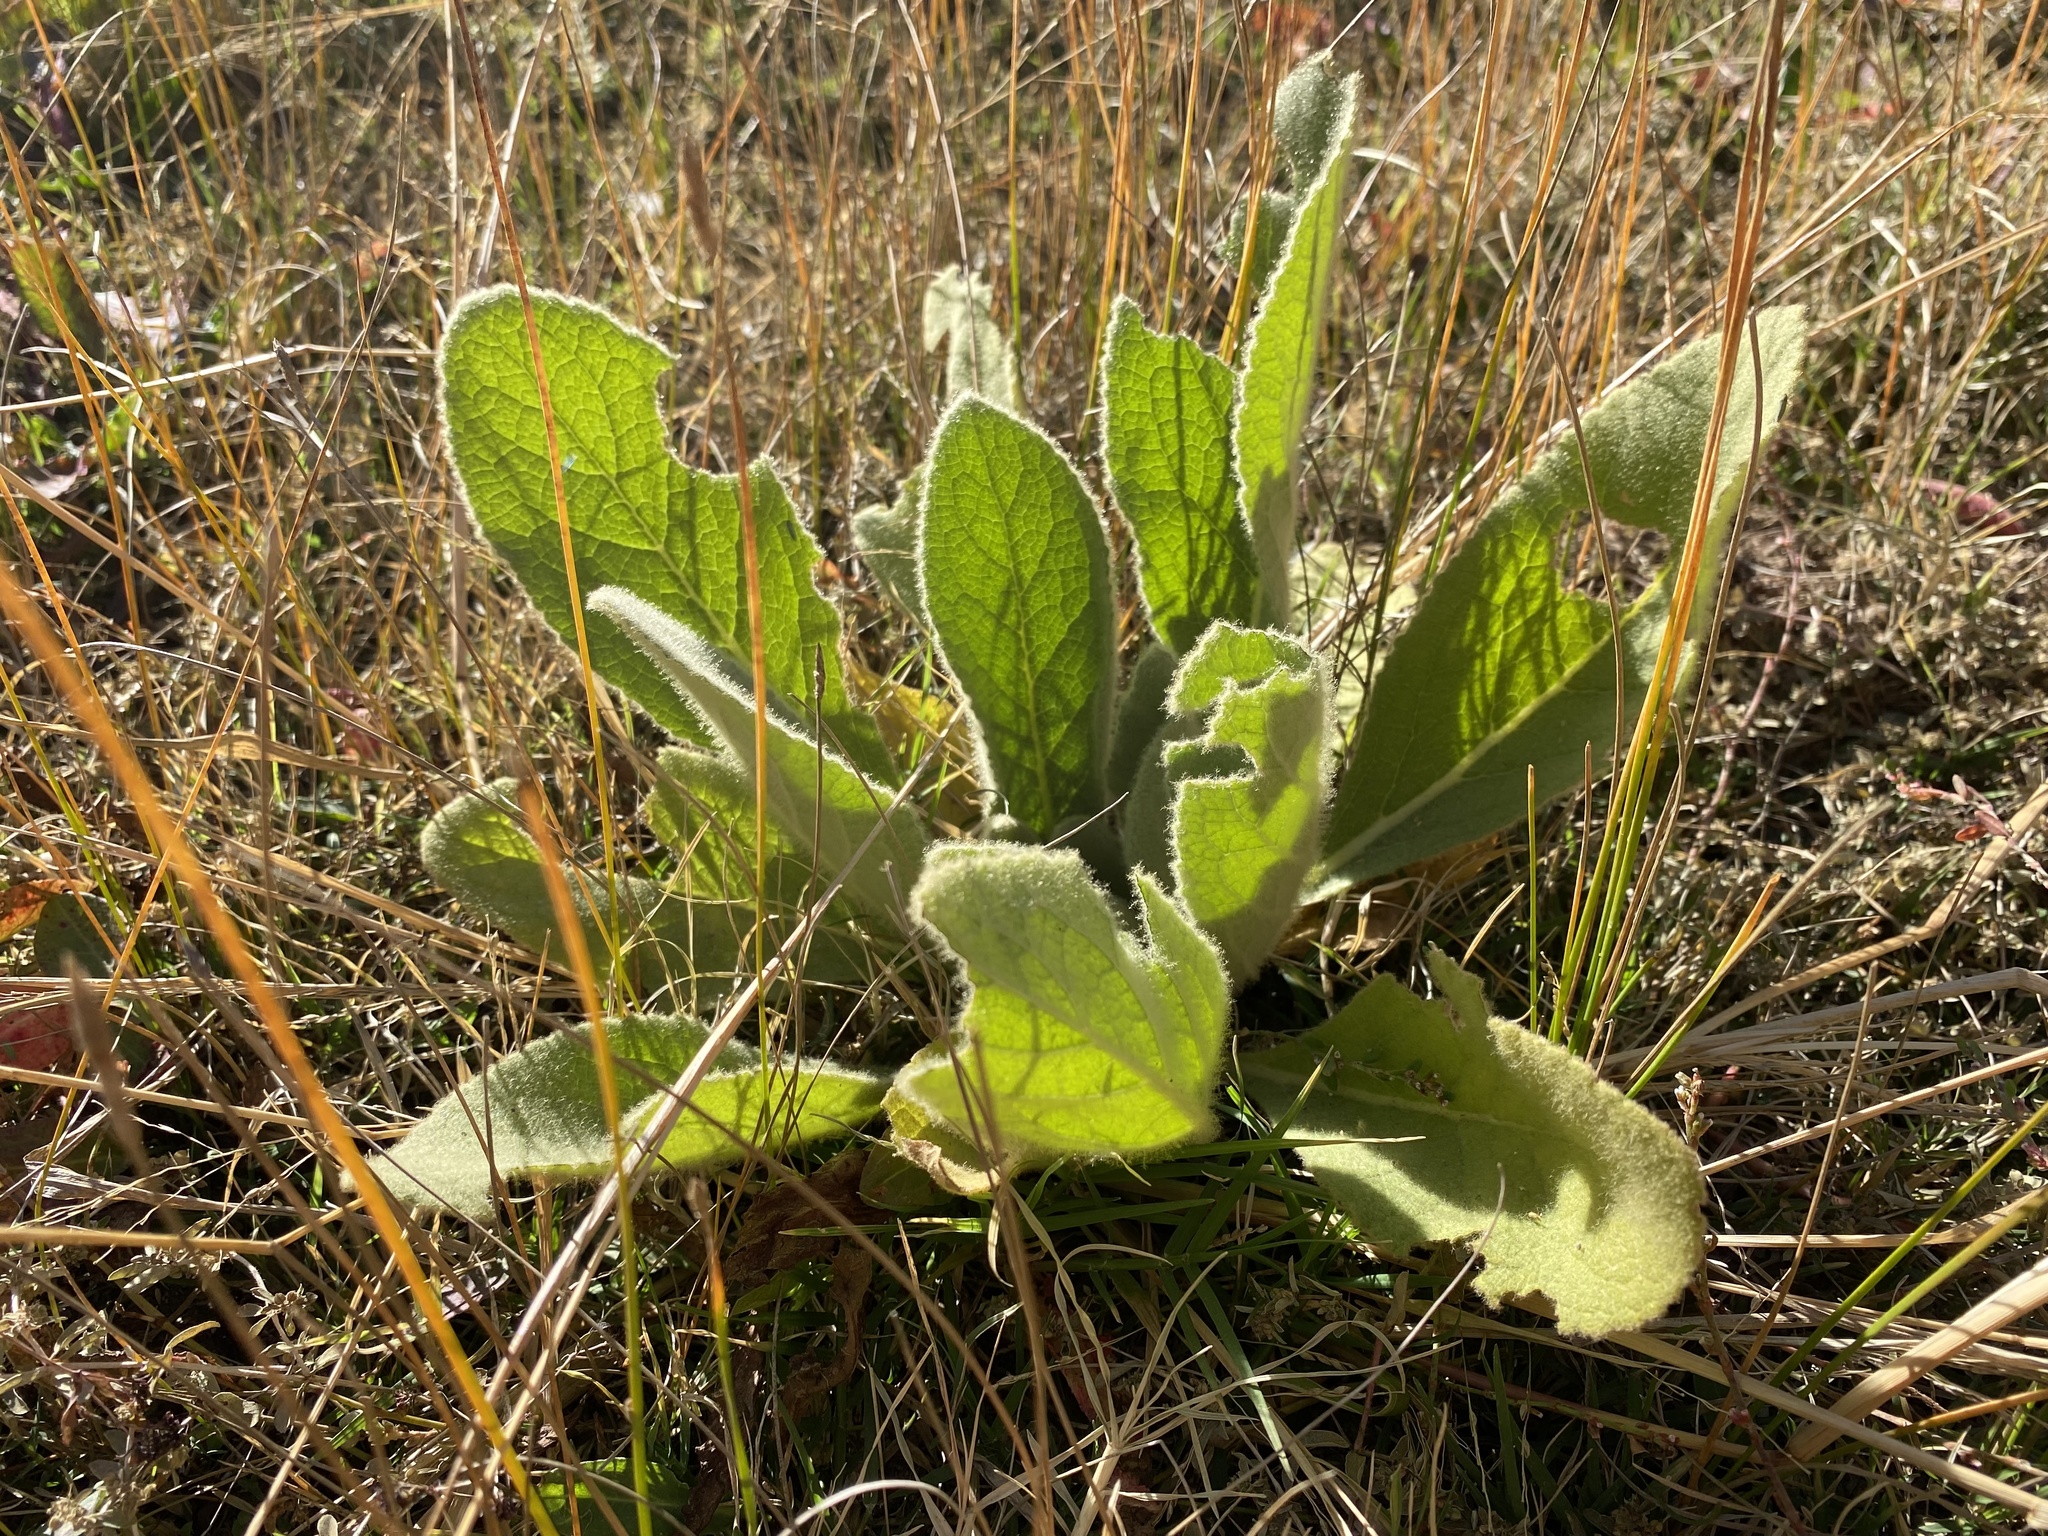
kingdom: Plantae
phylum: Tracheophyta
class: Magnoliopsida
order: Lamiales
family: Scrophulariaceae
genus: Verbascum
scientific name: Verbascum thapsus
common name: Common mullein
